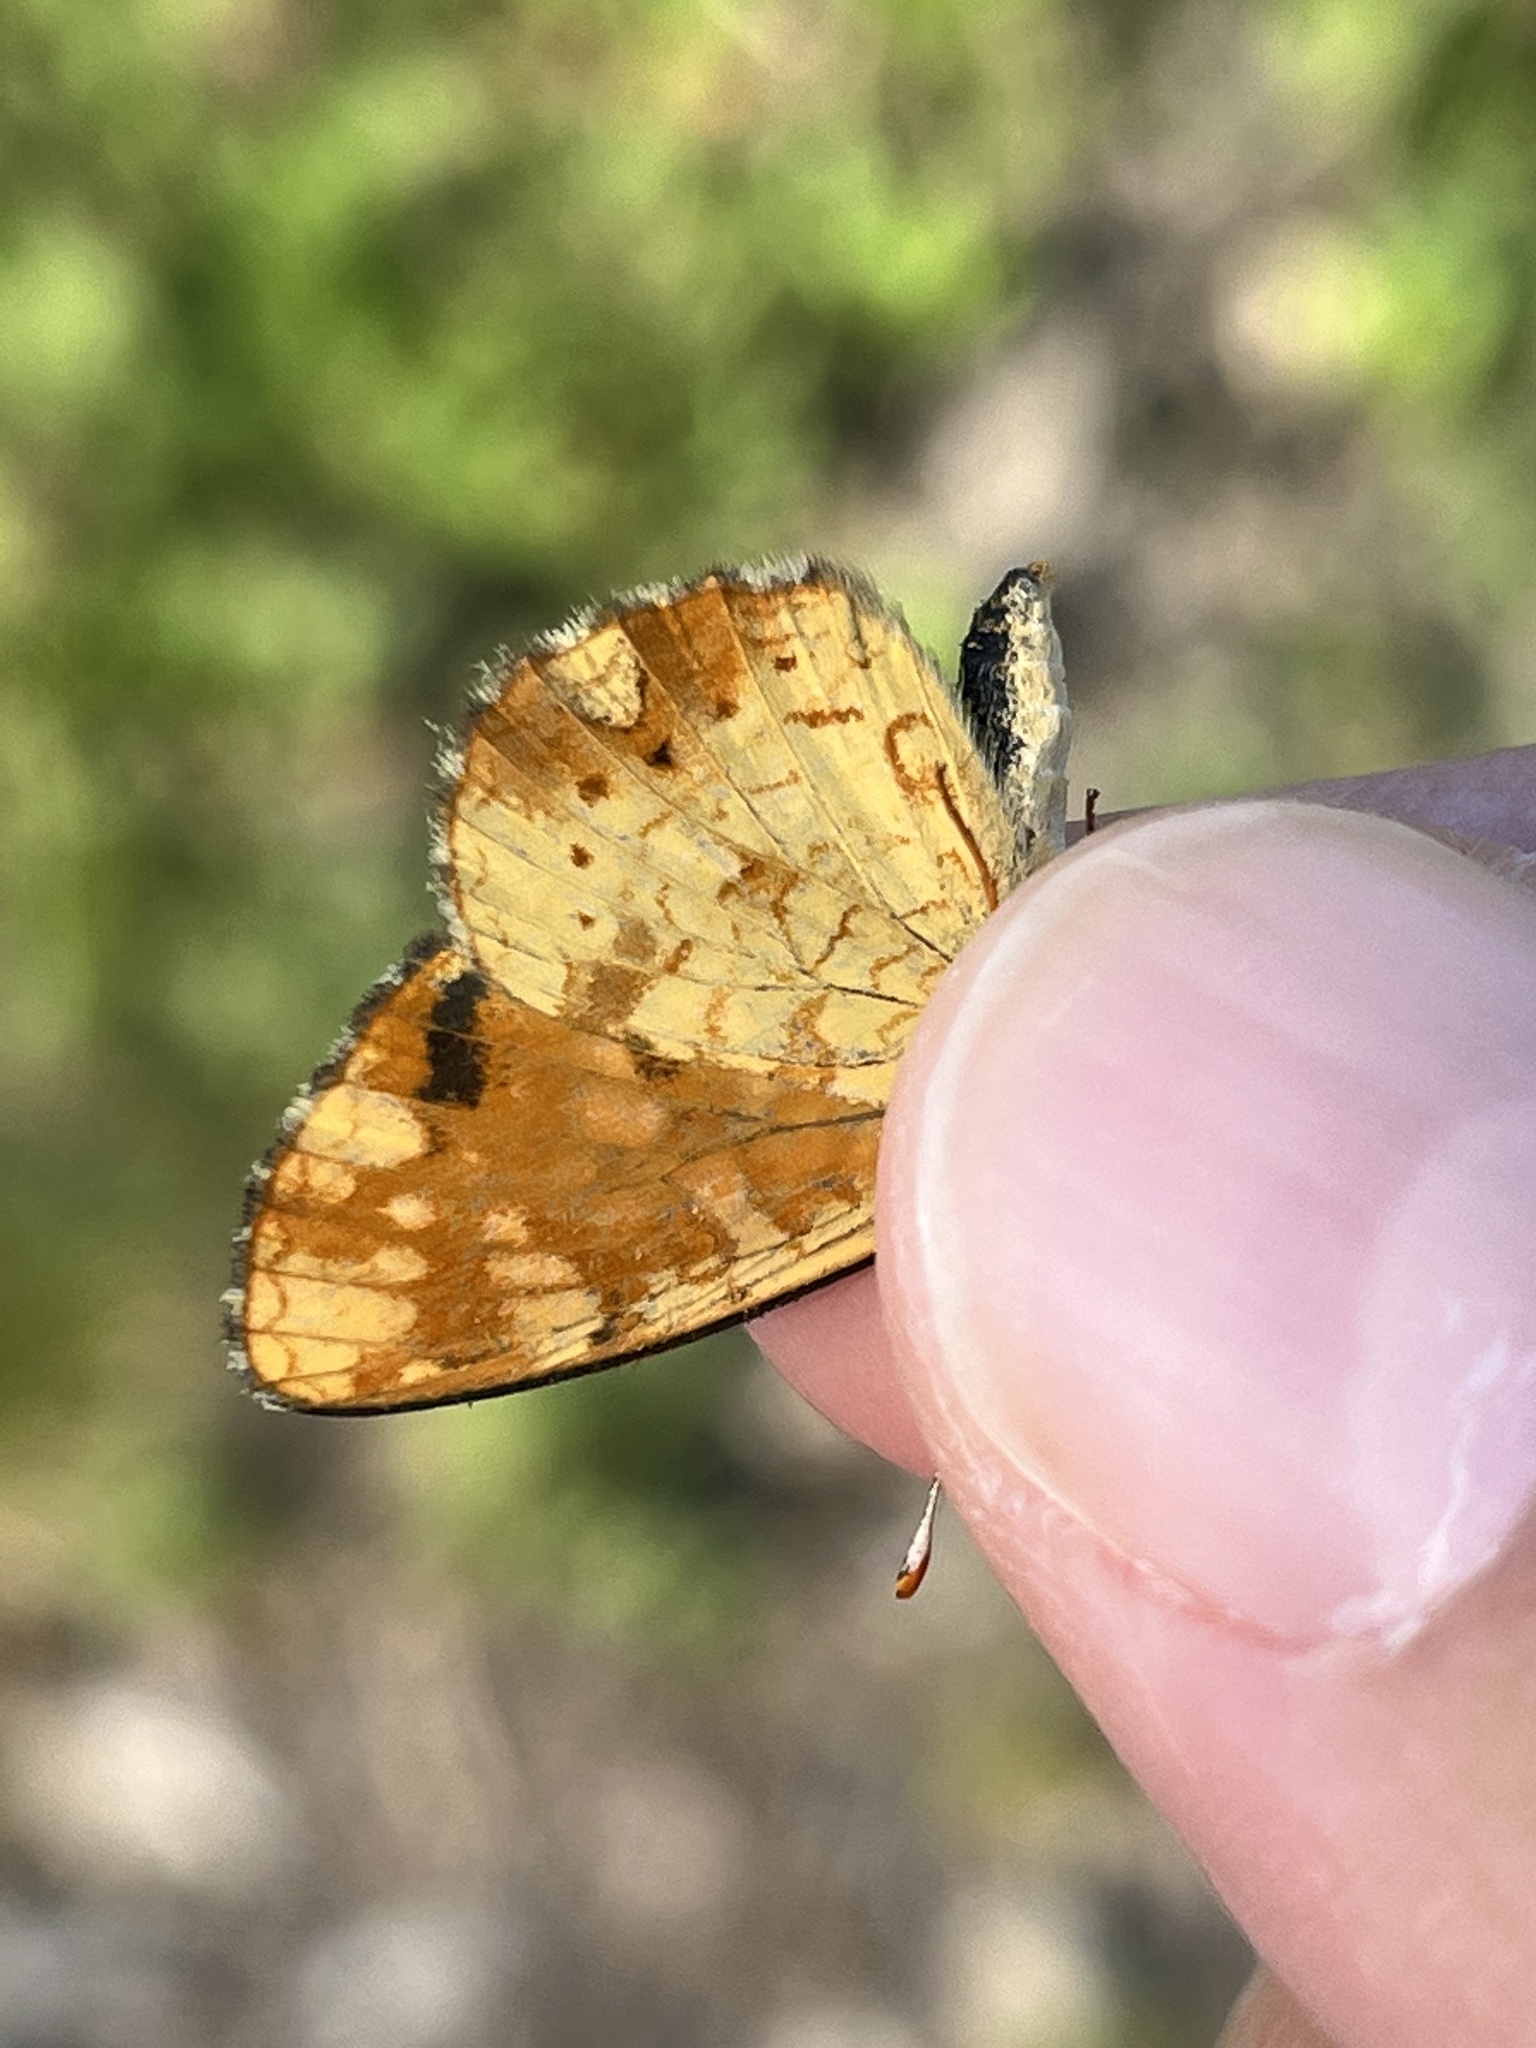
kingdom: Animalia
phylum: Arthropoda
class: Insecta
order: Lepidoptera
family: Nymphalidae
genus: Phyciodes
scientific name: Phyciodes tharos
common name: Pearl crescent
